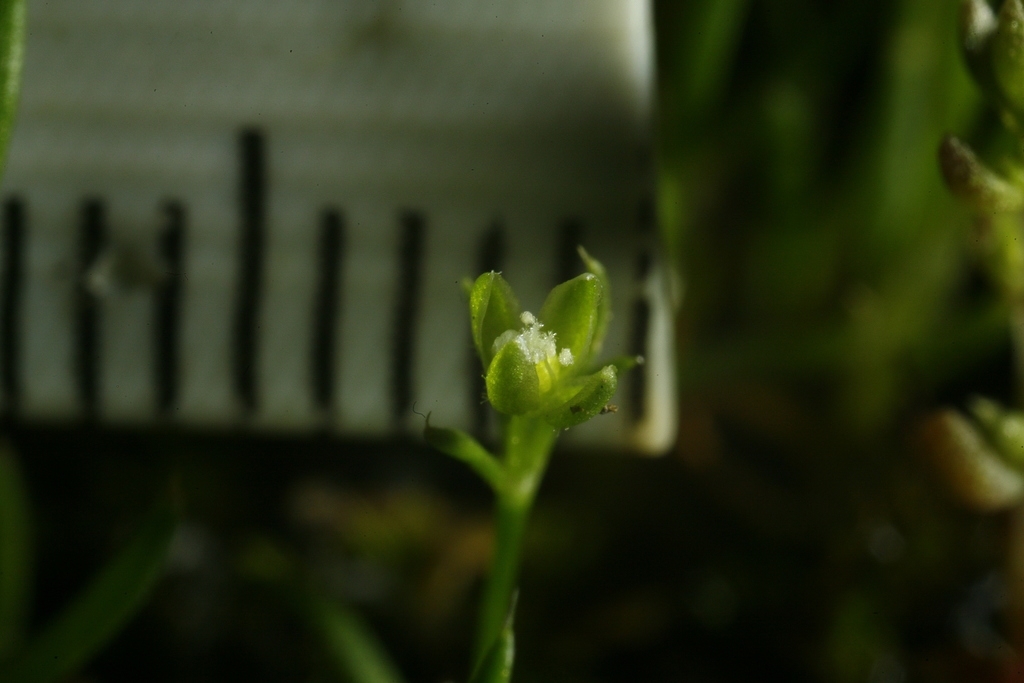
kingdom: Plantae
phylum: Tracheophyta
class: Magnoliopsida
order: Caryophyllales
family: Caryophyllaceae
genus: Sagina
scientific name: Sagina procumbens
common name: Procumbent pearlwort
